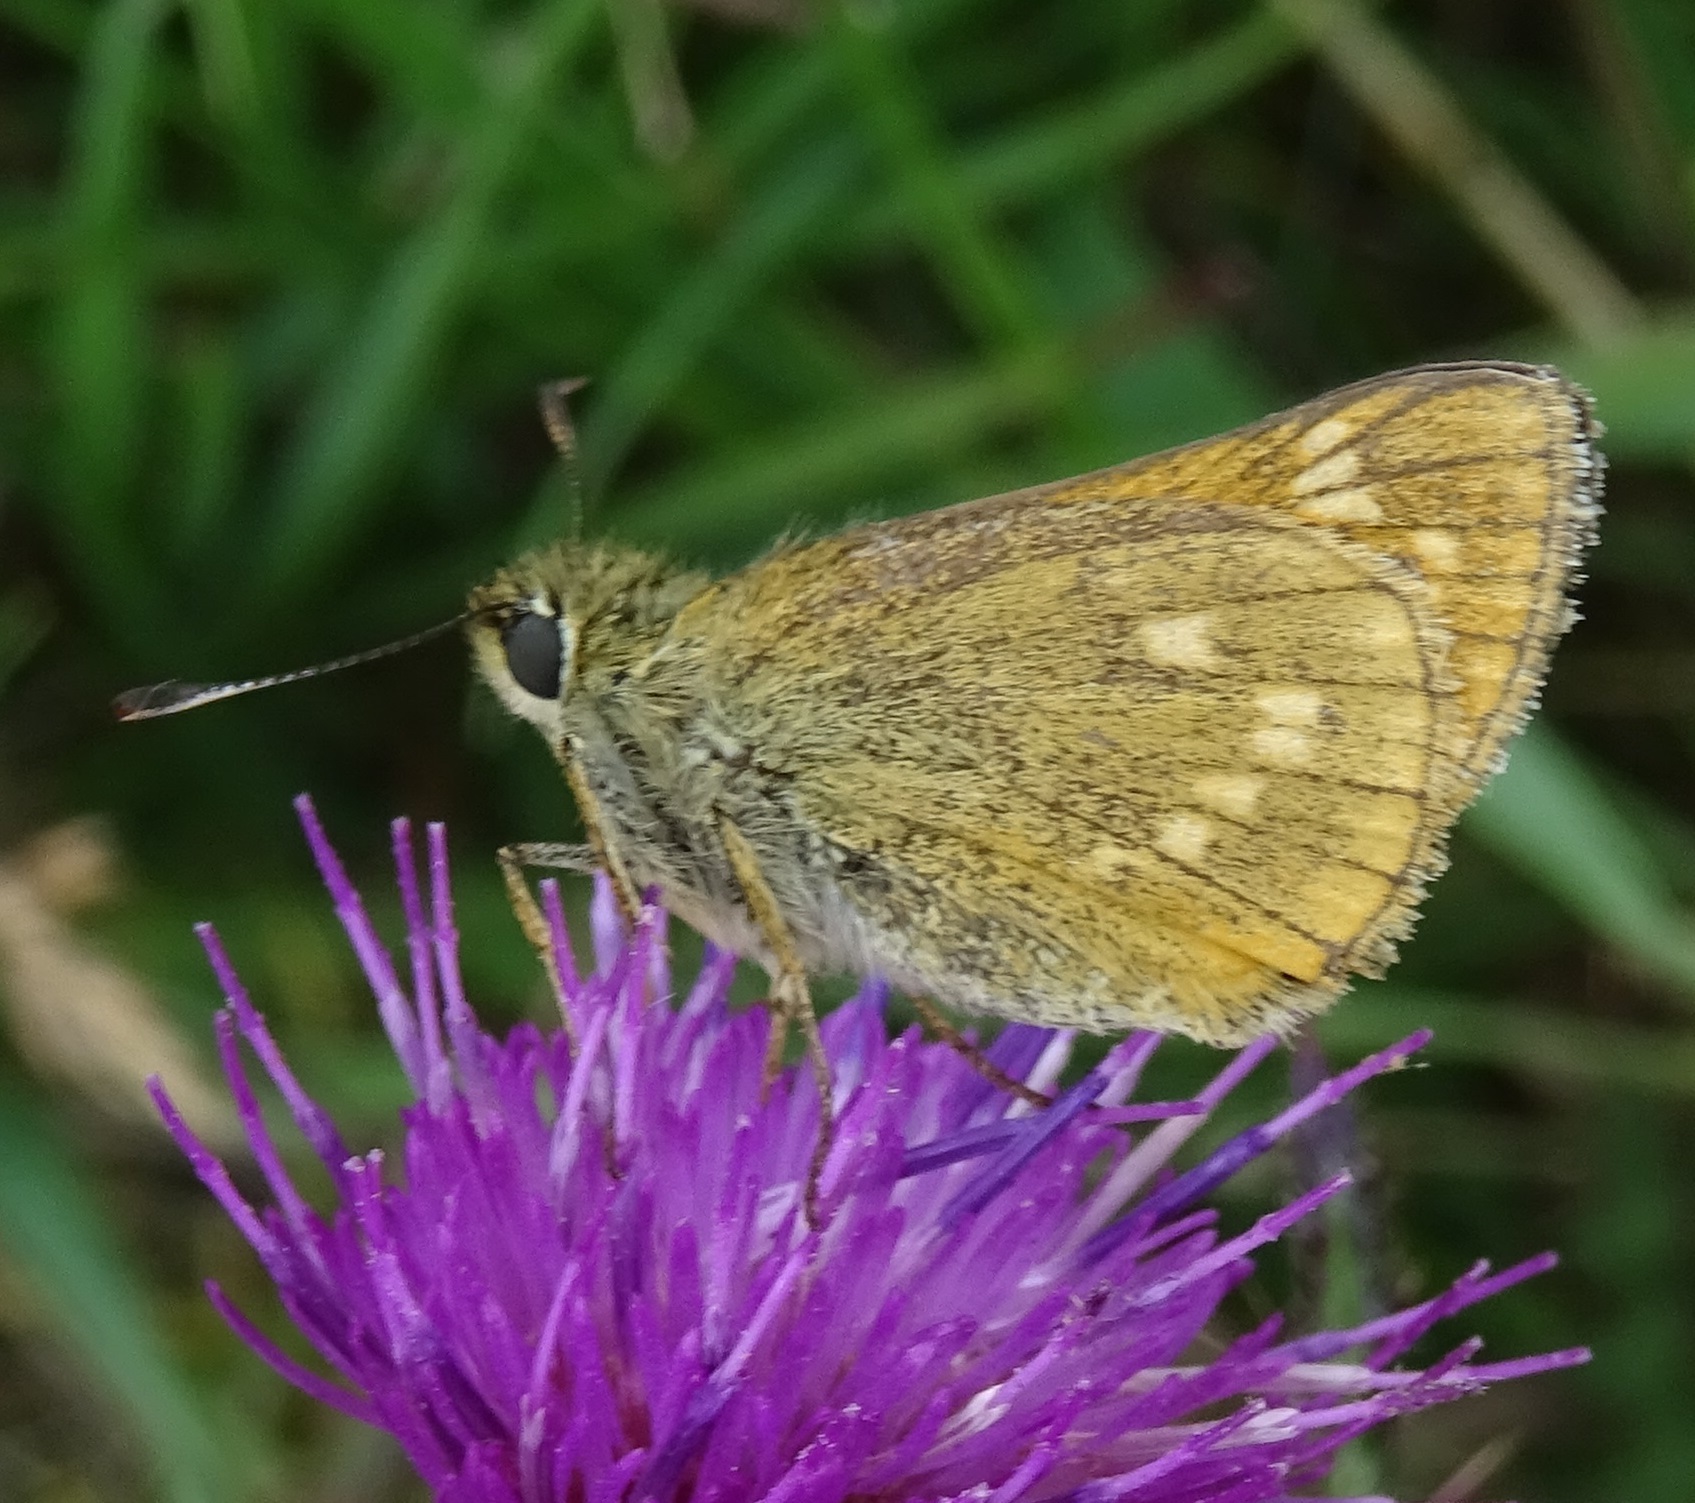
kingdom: Animalia
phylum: Arthropoda
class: Insecta
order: Lepidoptera
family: Hesperiidae
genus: Ochlodes
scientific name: Ochlodes venata
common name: Large skipper
